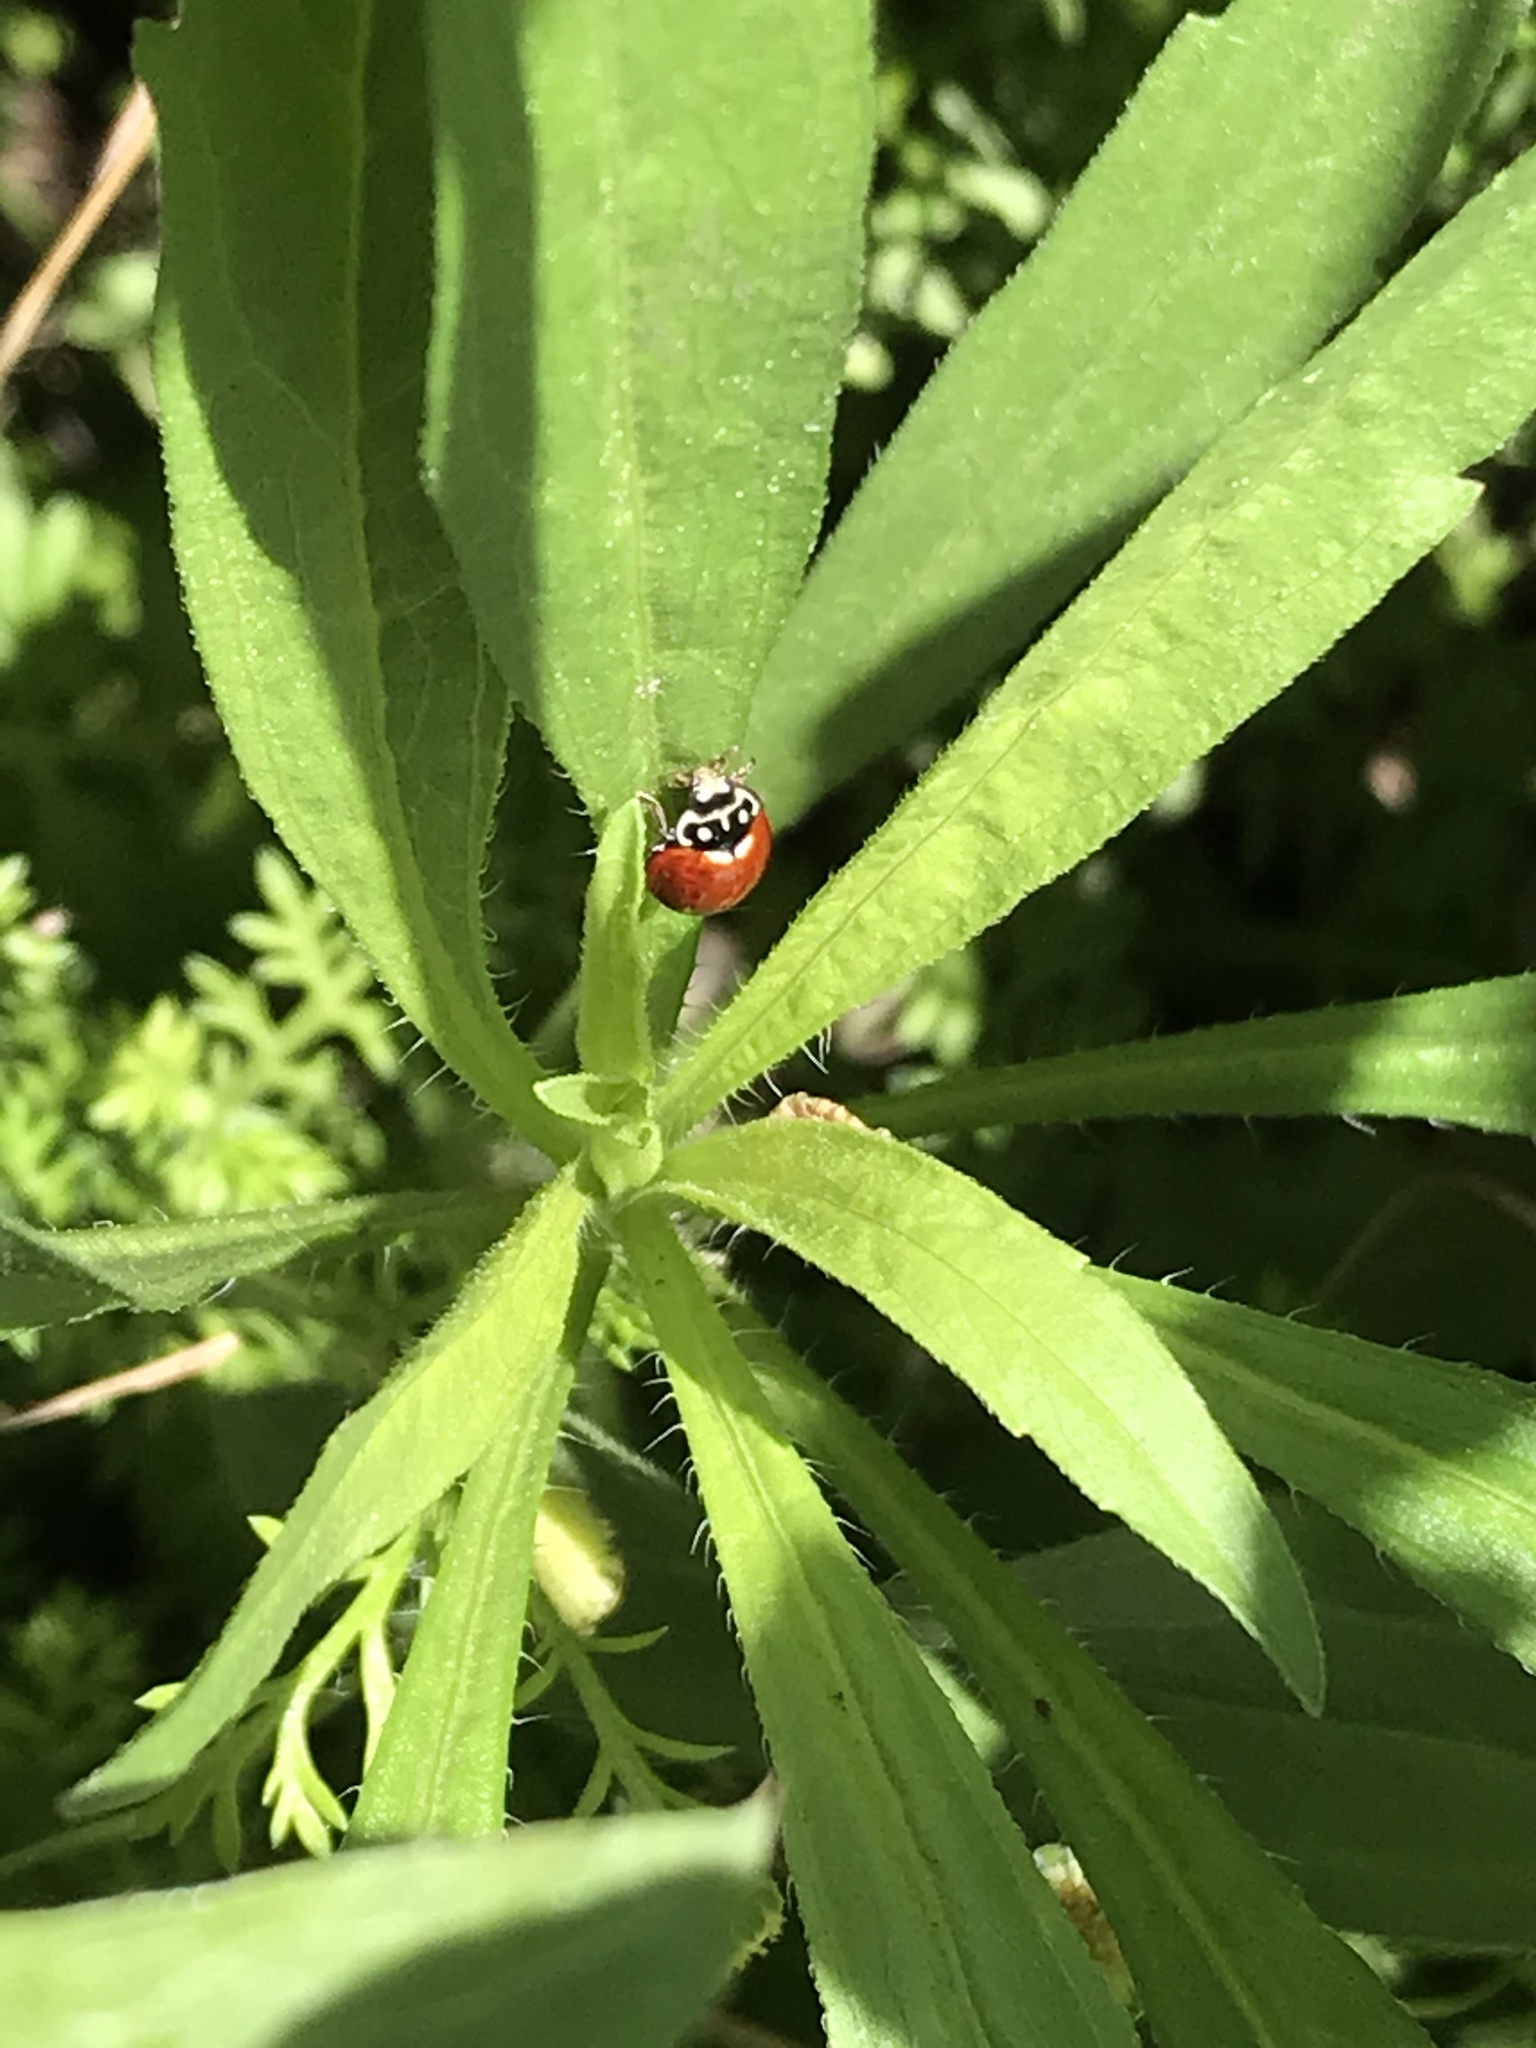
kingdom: Animalia
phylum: Arthropoda
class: Insecta
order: Coleoptera
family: Coccinellidae
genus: Cycloneda
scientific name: Cycloneda sanguinea
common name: Ladybird beetle
